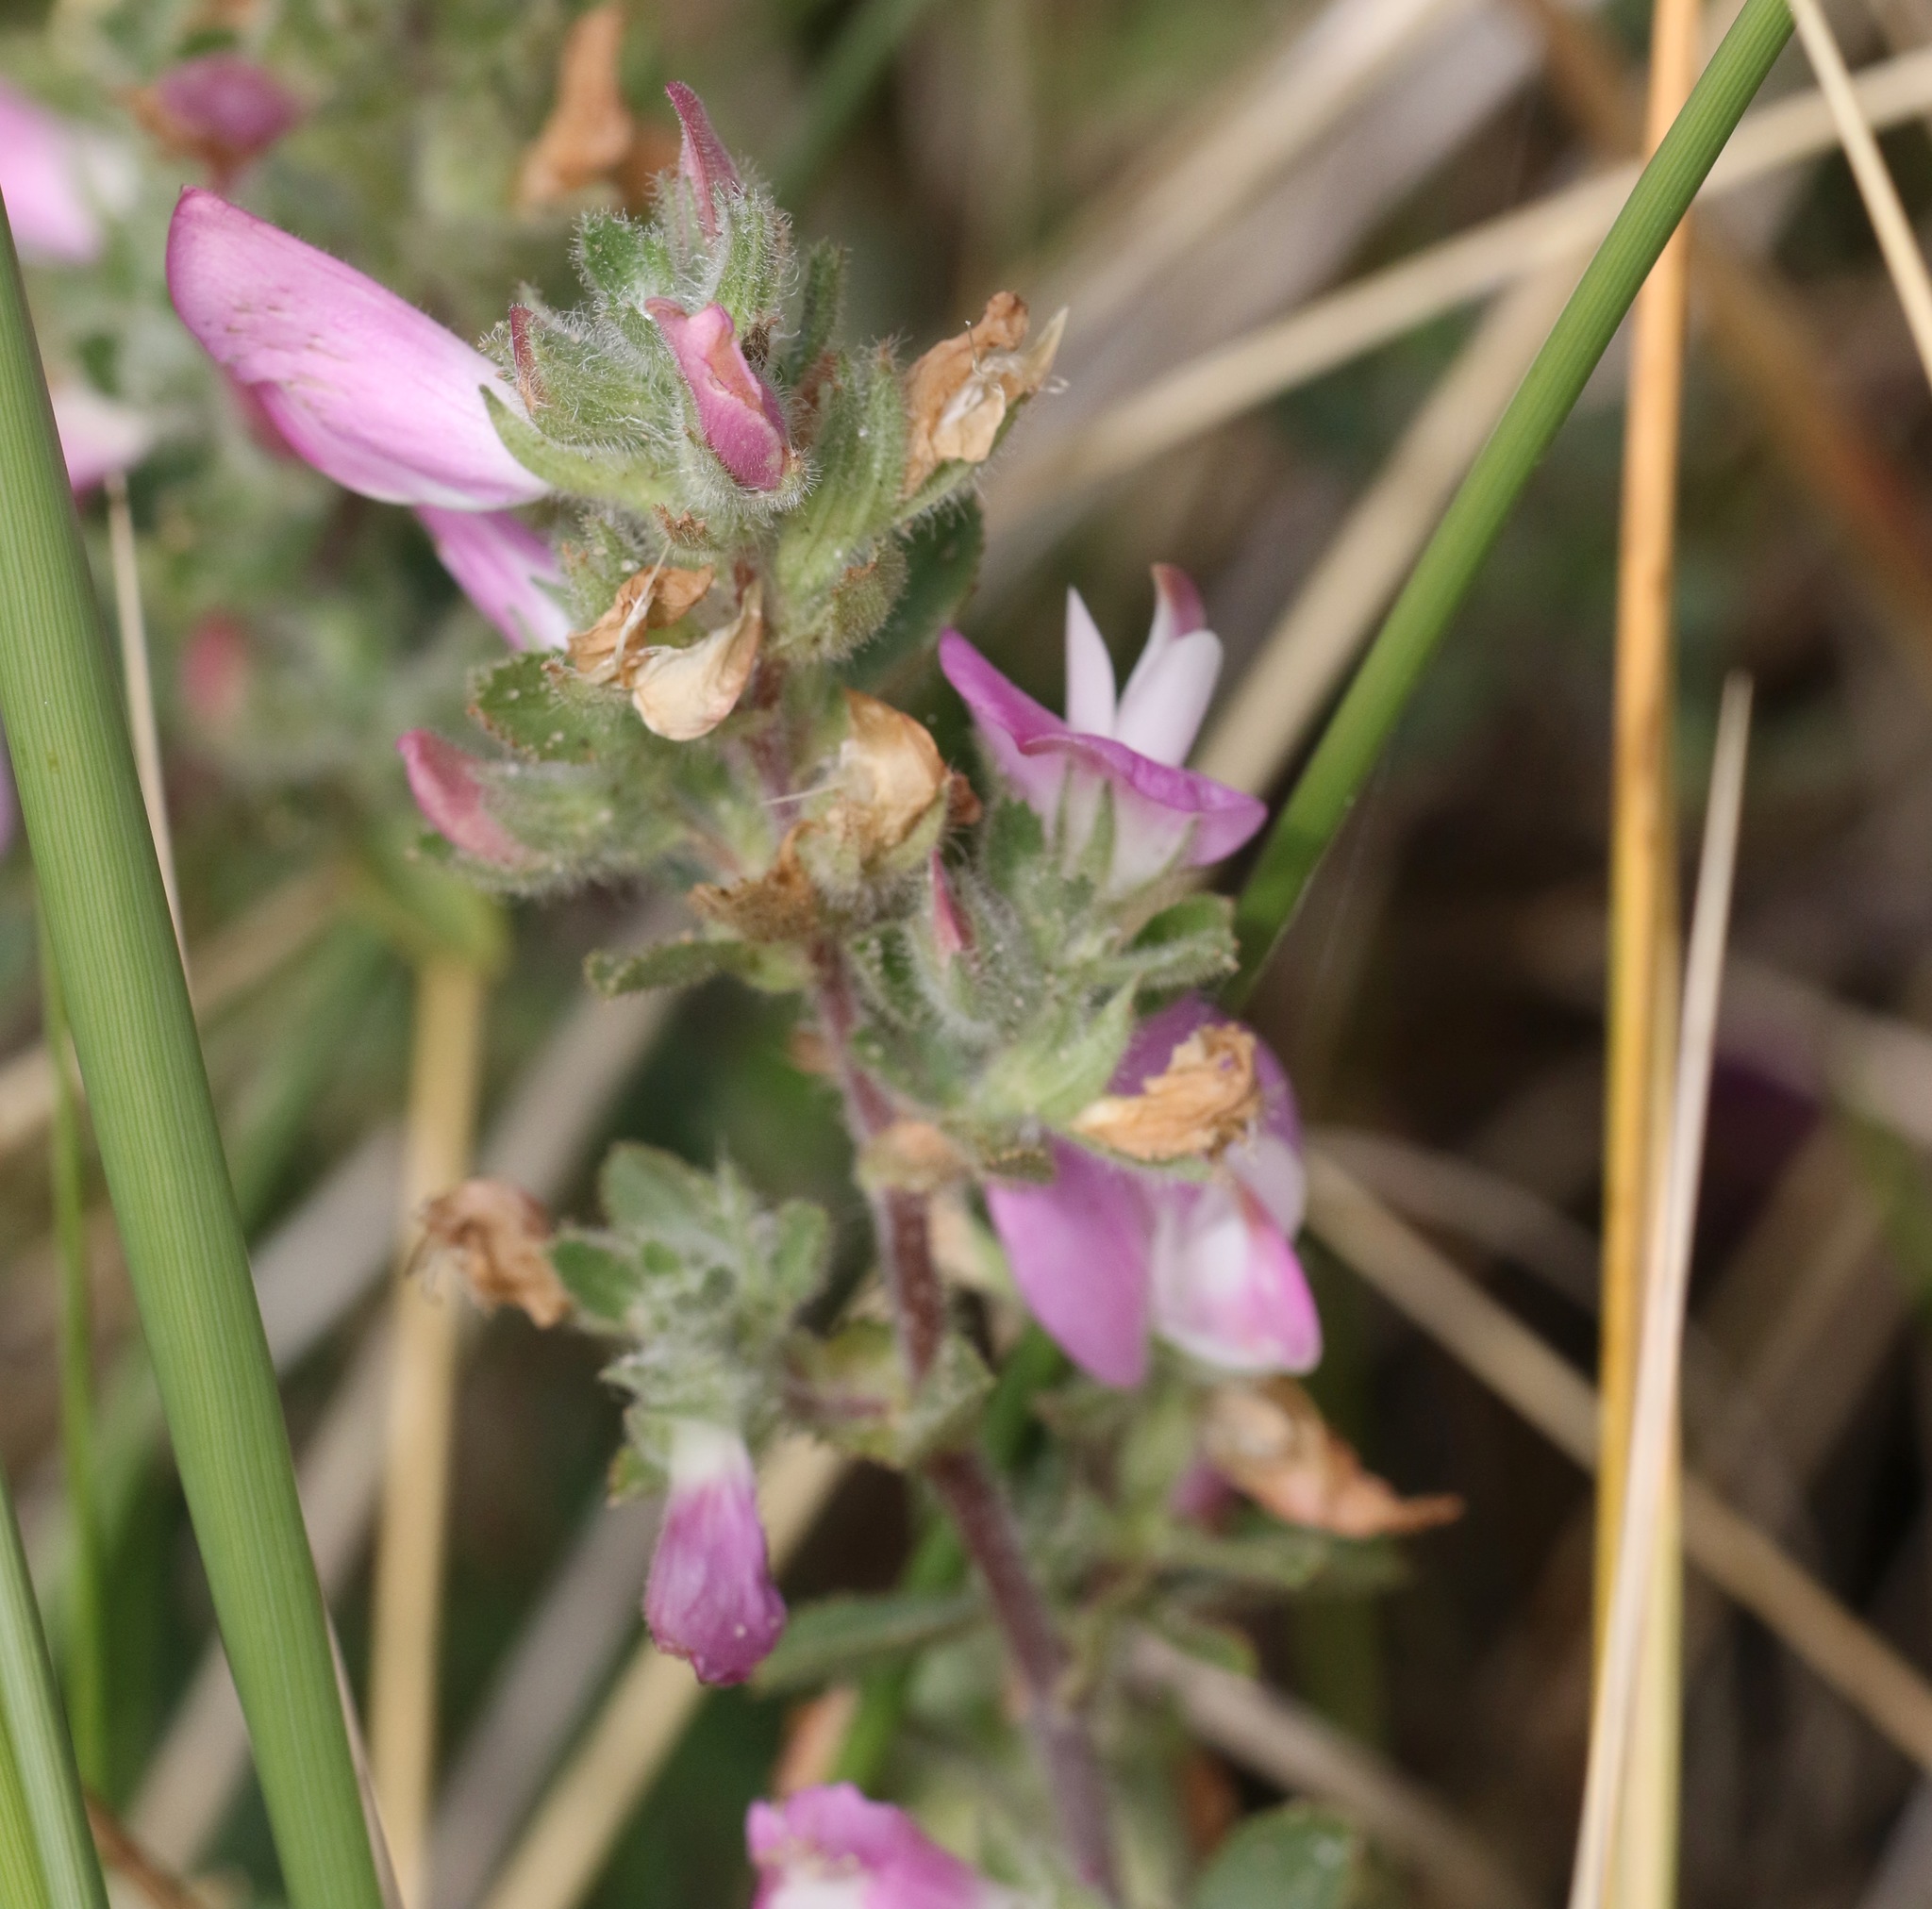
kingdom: Plantae
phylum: Tracheophyta
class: Magnoliopsida
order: Fabales
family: Fabaceae
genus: Ononis
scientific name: Ononis spinosa
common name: Spiny restharrow
